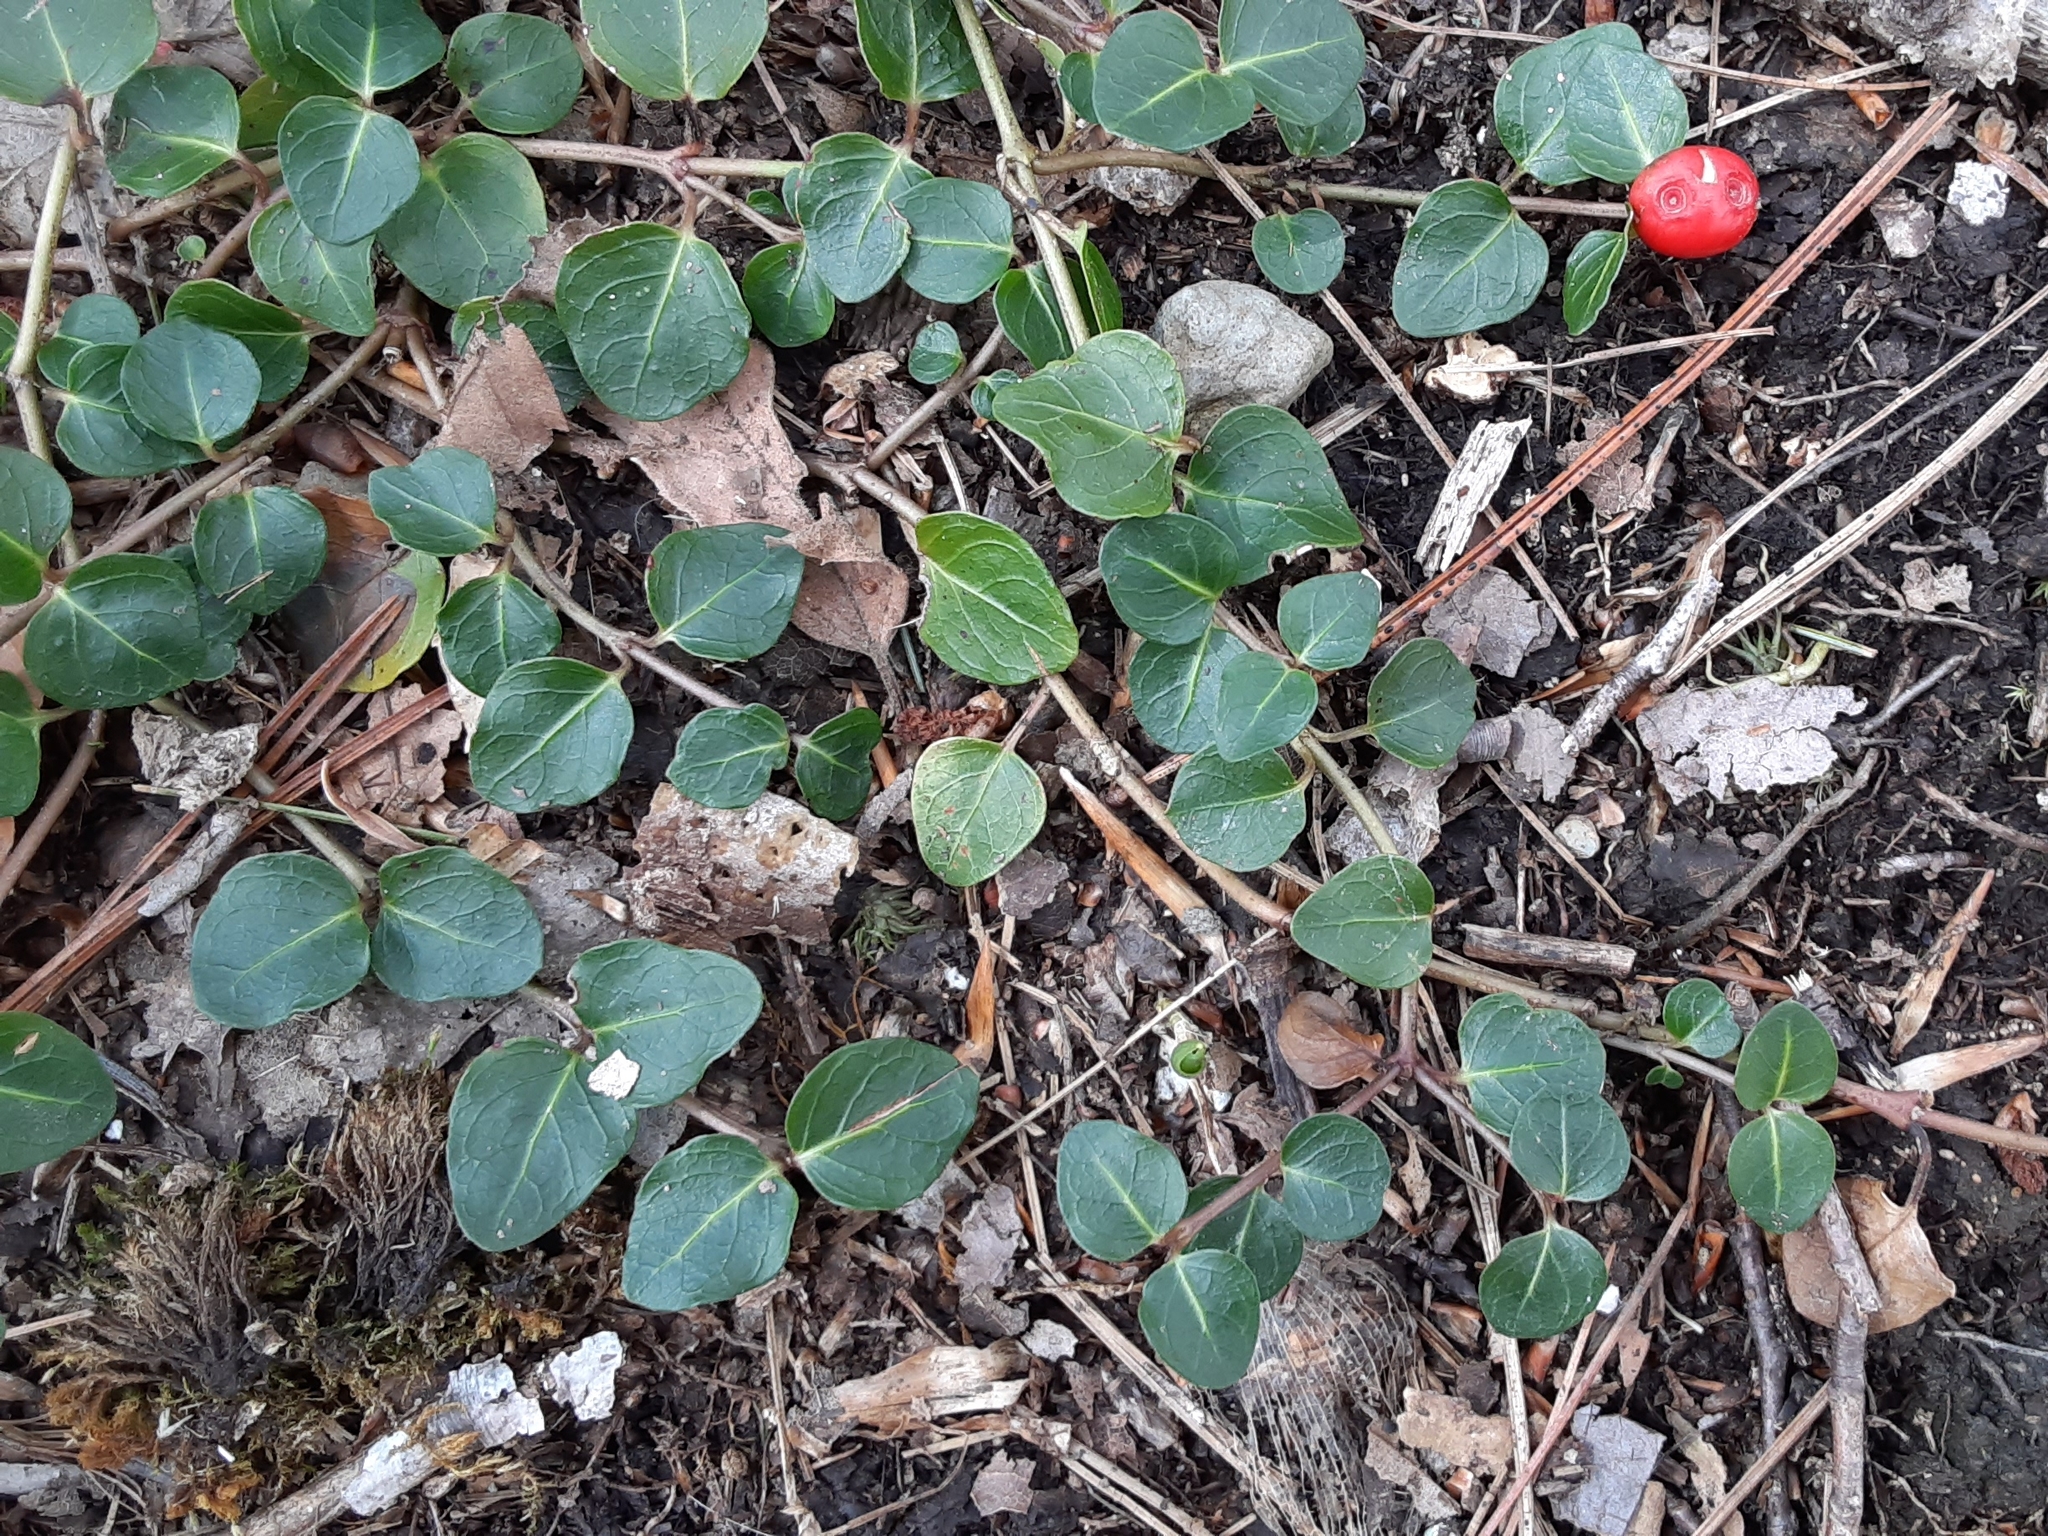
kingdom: Plantae
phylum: Tracheophyta
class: Magnoliopsida
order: Gentianales
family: Rubiaceae
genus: Mitchella
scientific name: Mitchella repens
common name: Partridge-berry
